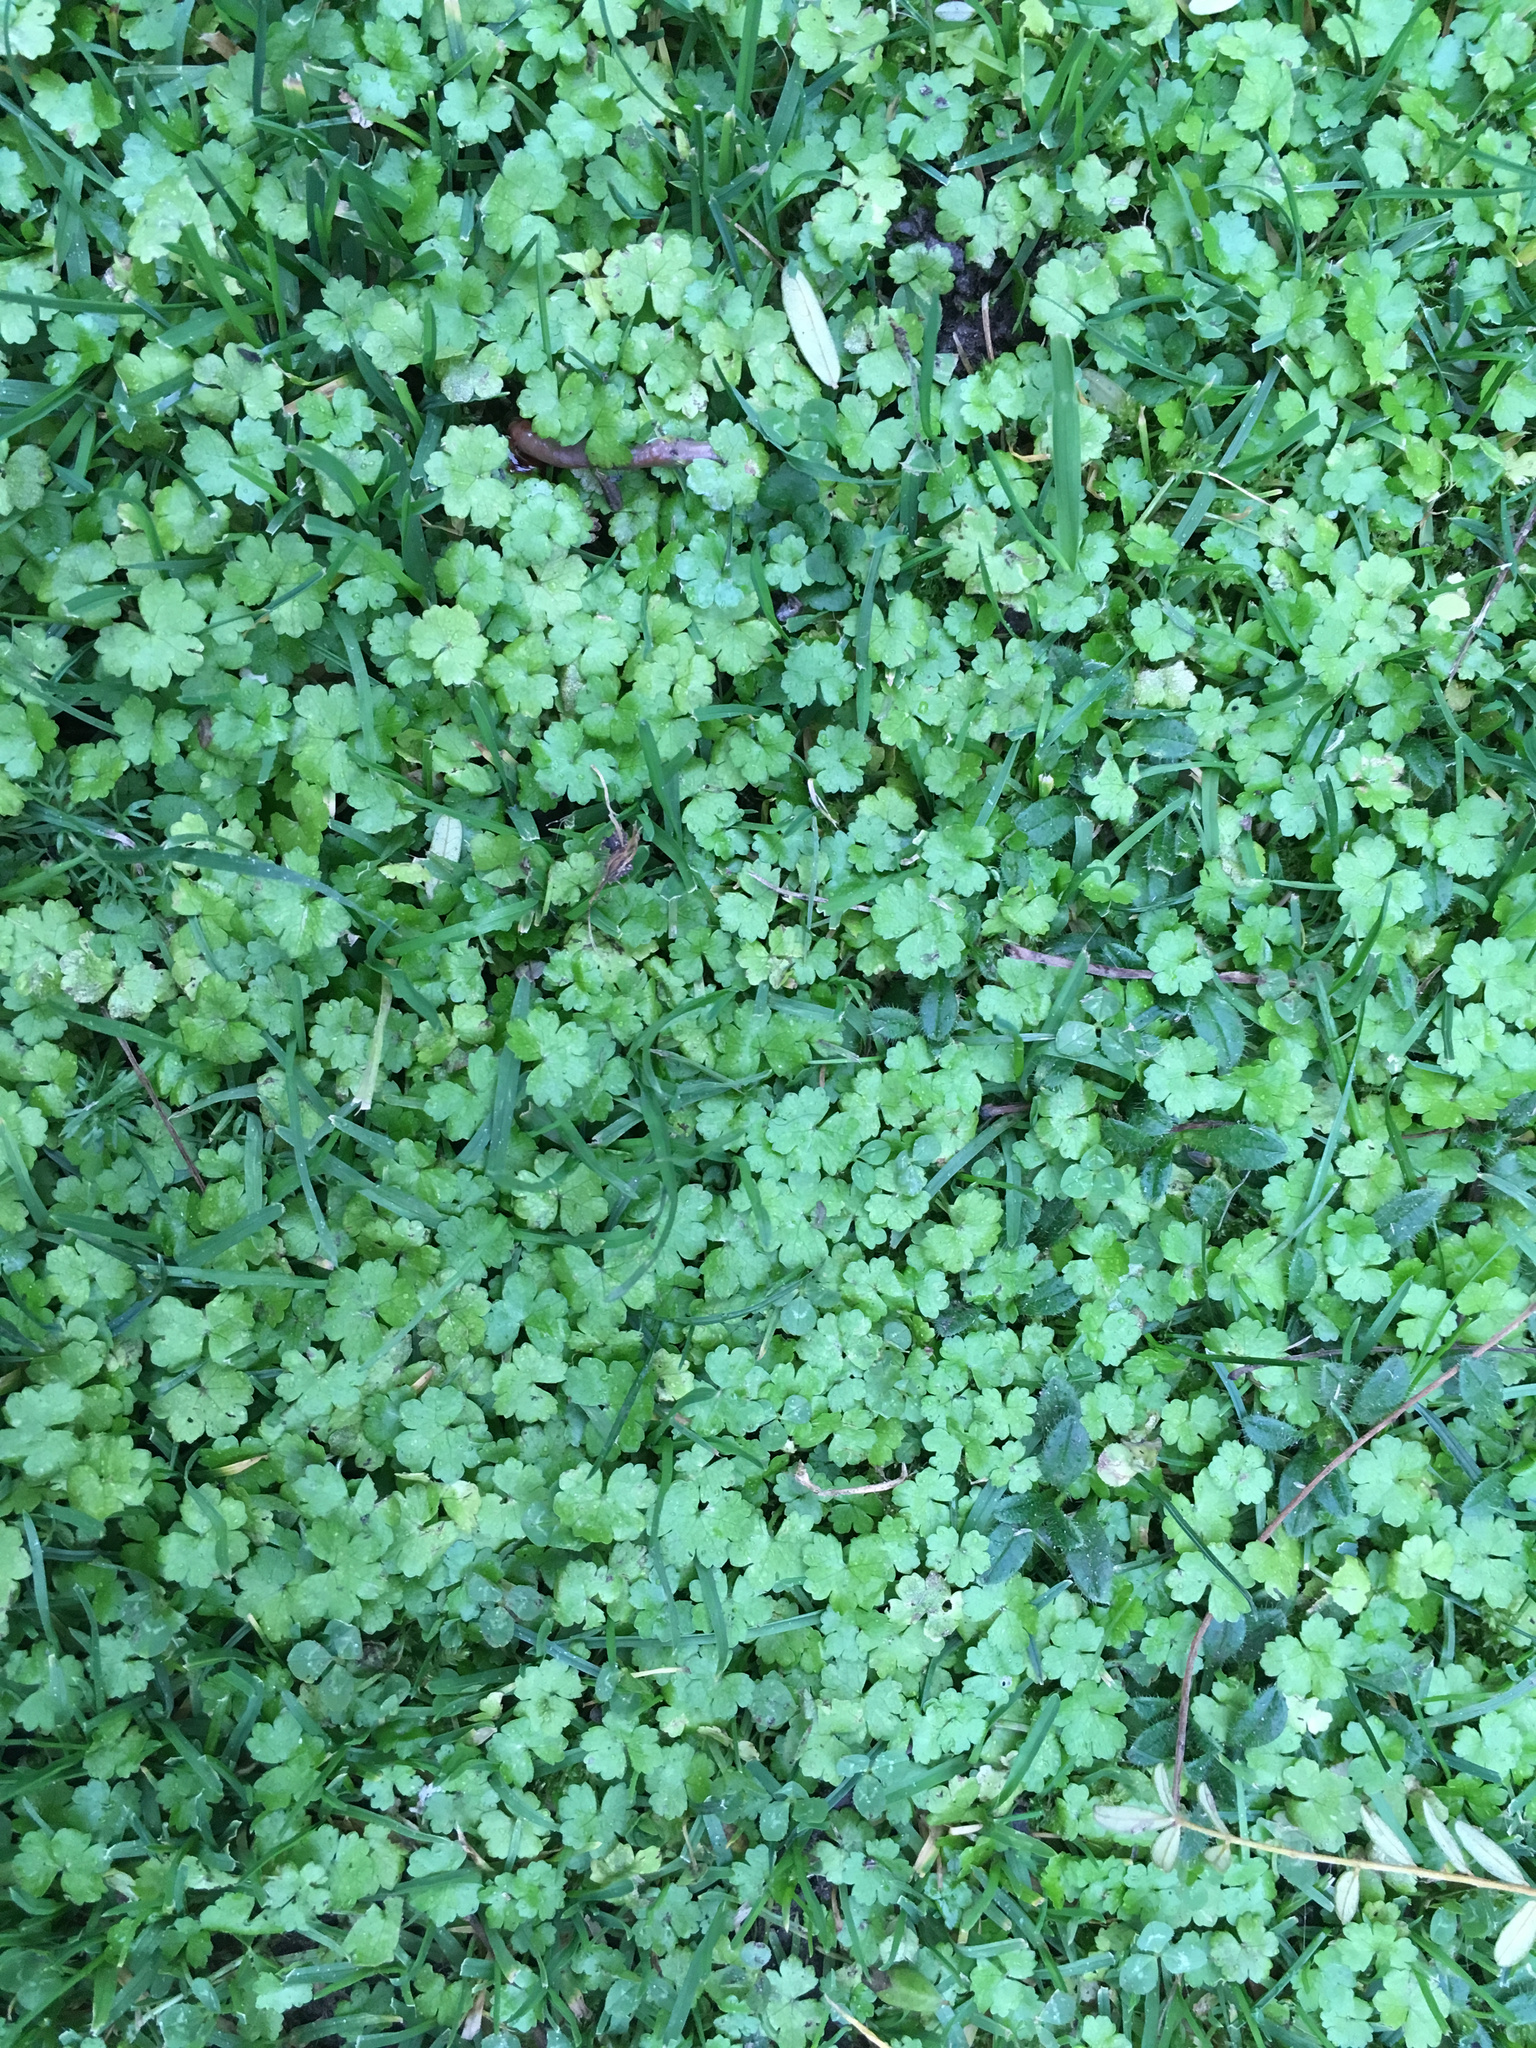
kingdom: Plantae
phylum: Tracheophyta
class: Magnoliopsida
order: Apiales
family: Araliaceae
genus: Hydrocotyle
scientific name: Hydrocotyle heteromeria
